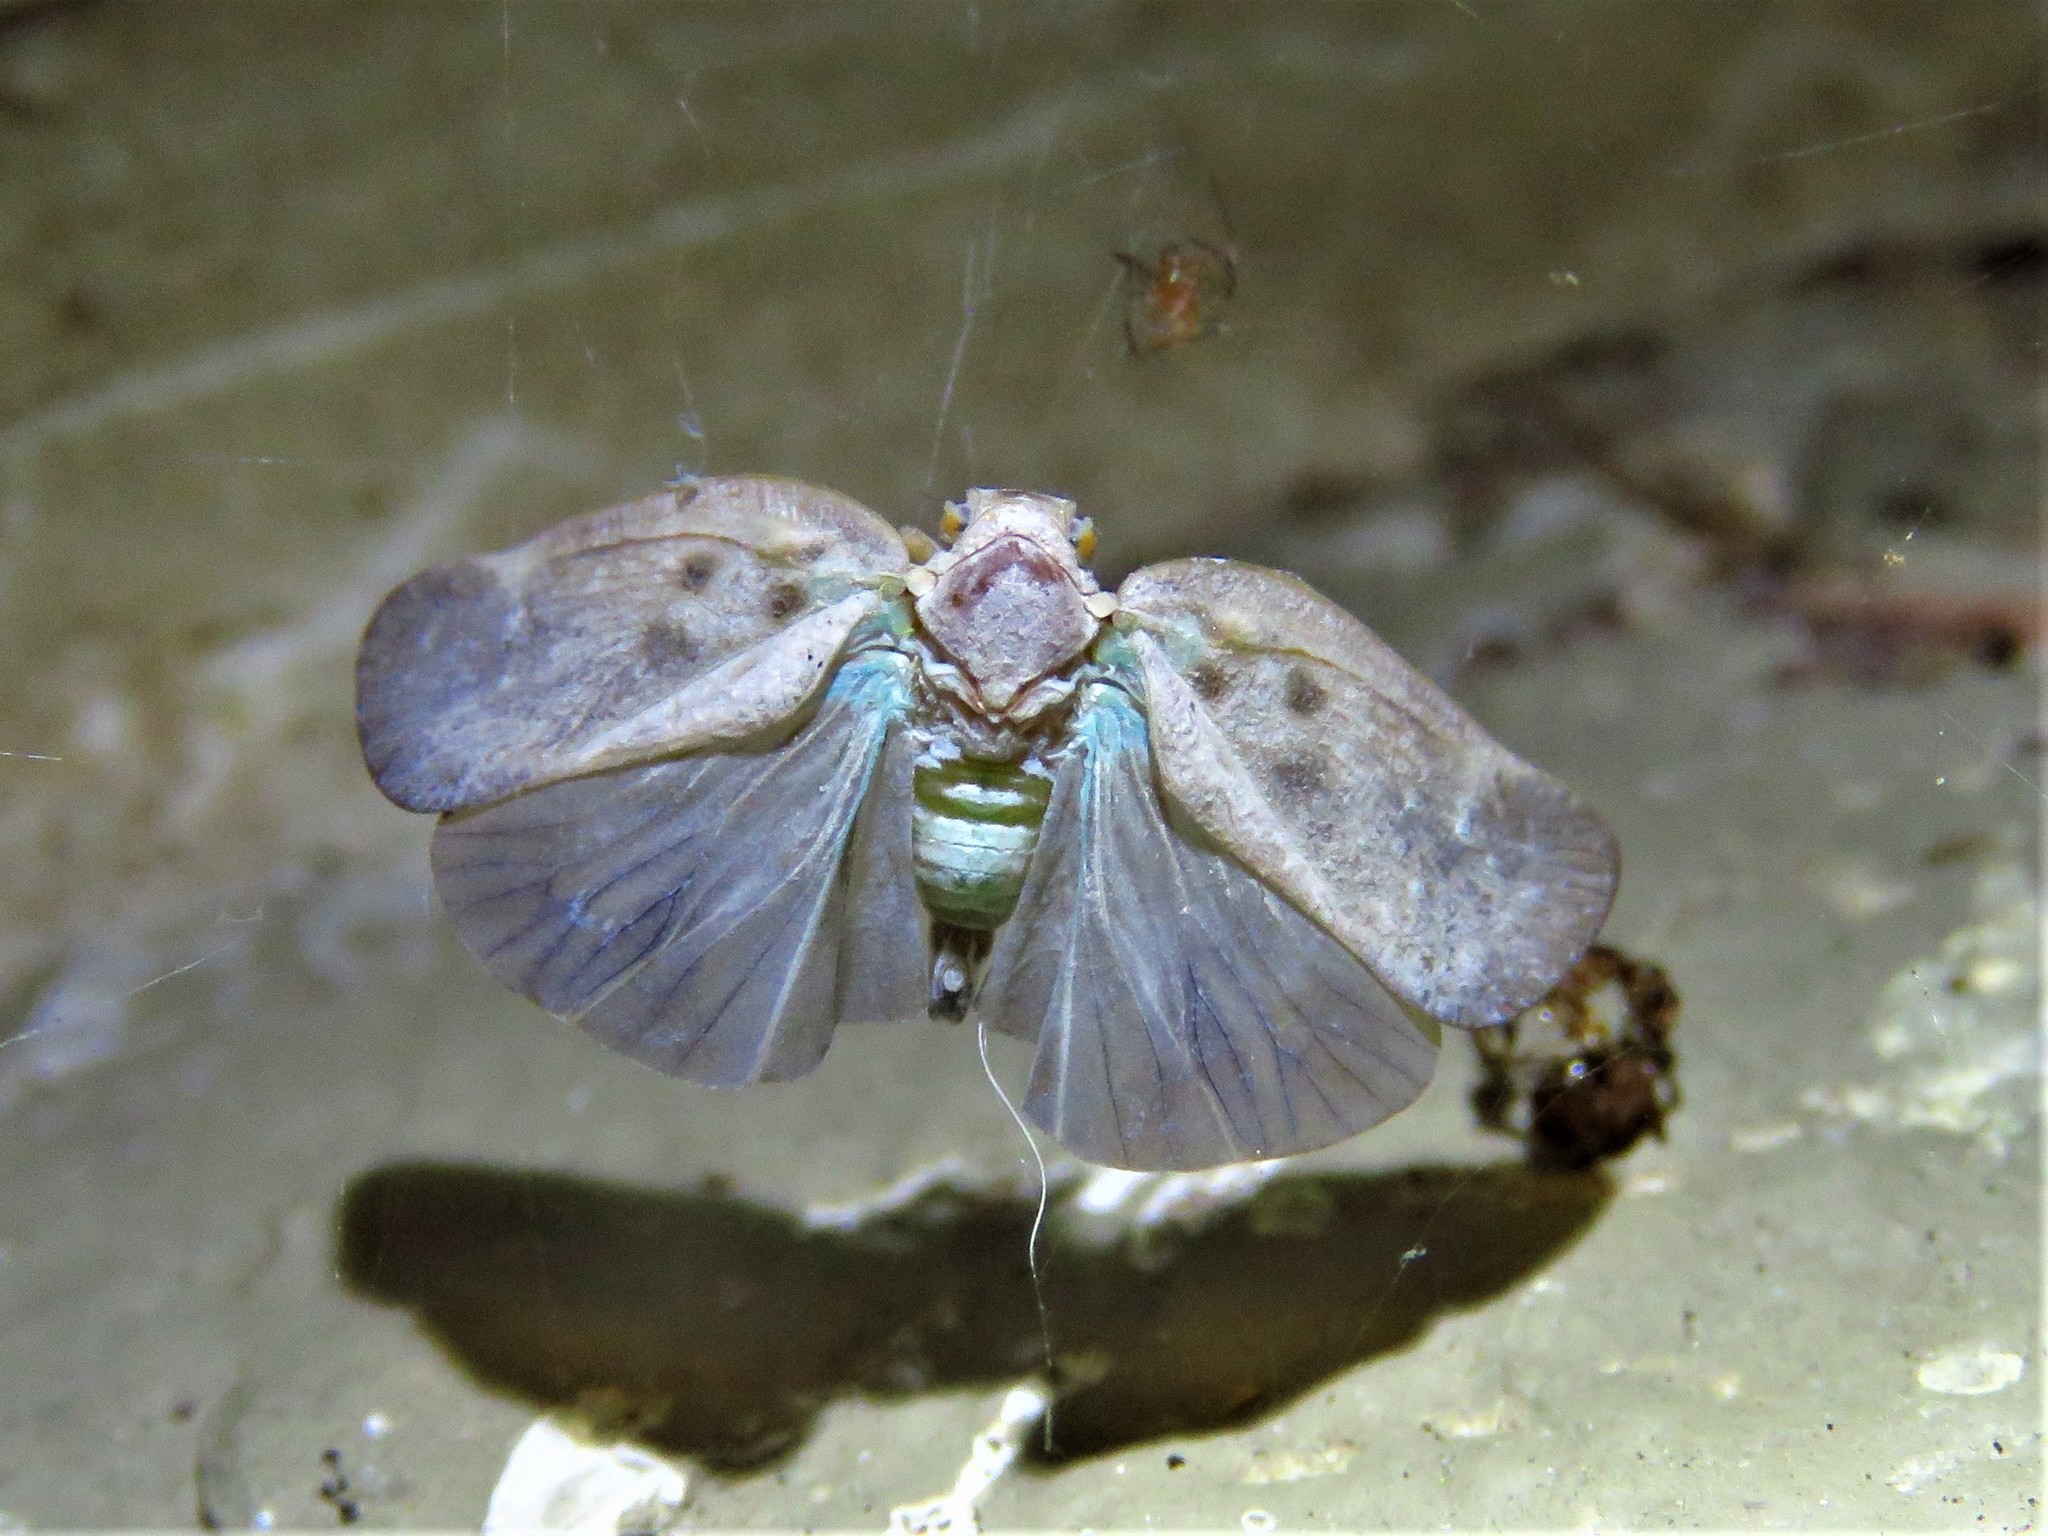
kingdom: Animalia
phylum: Arthropoda
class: Insecta
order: Hemiptera
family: Flatidae
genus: Metcalfa
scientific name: Metcalfa pruinosa
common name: Citrus flatid planthopper
